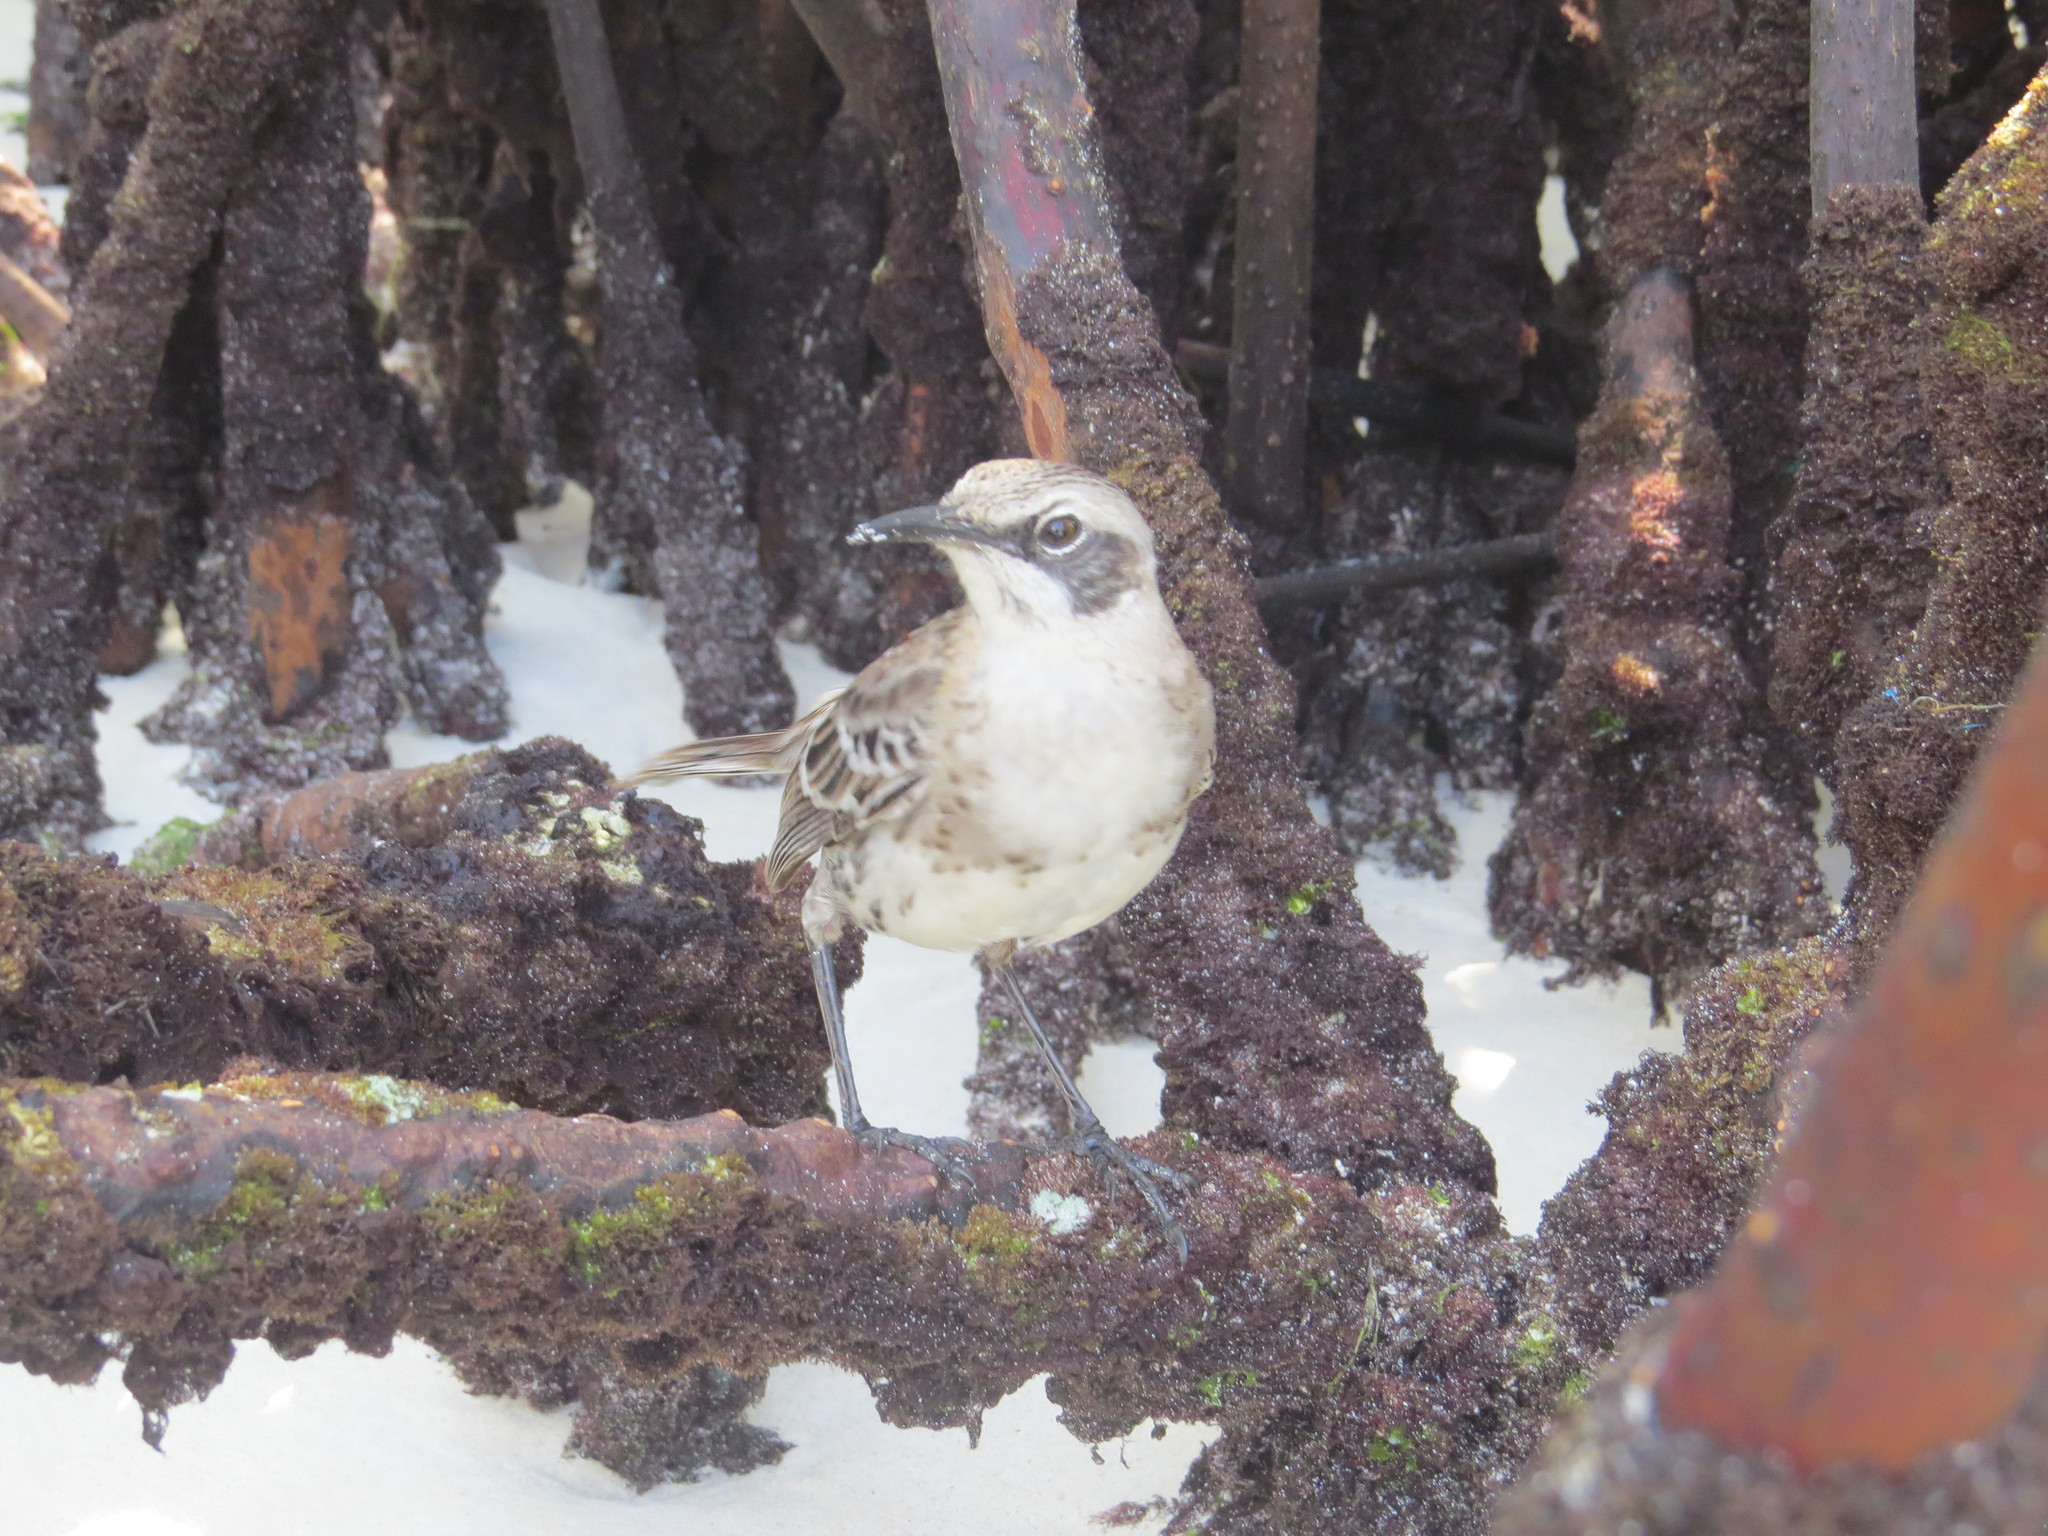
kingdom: Animalia
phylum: Chordata
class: Aves
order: Passeriformes
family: Mimidae
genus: Mimus
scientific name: Mimus melanotis
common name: San cristobal mockingbird
